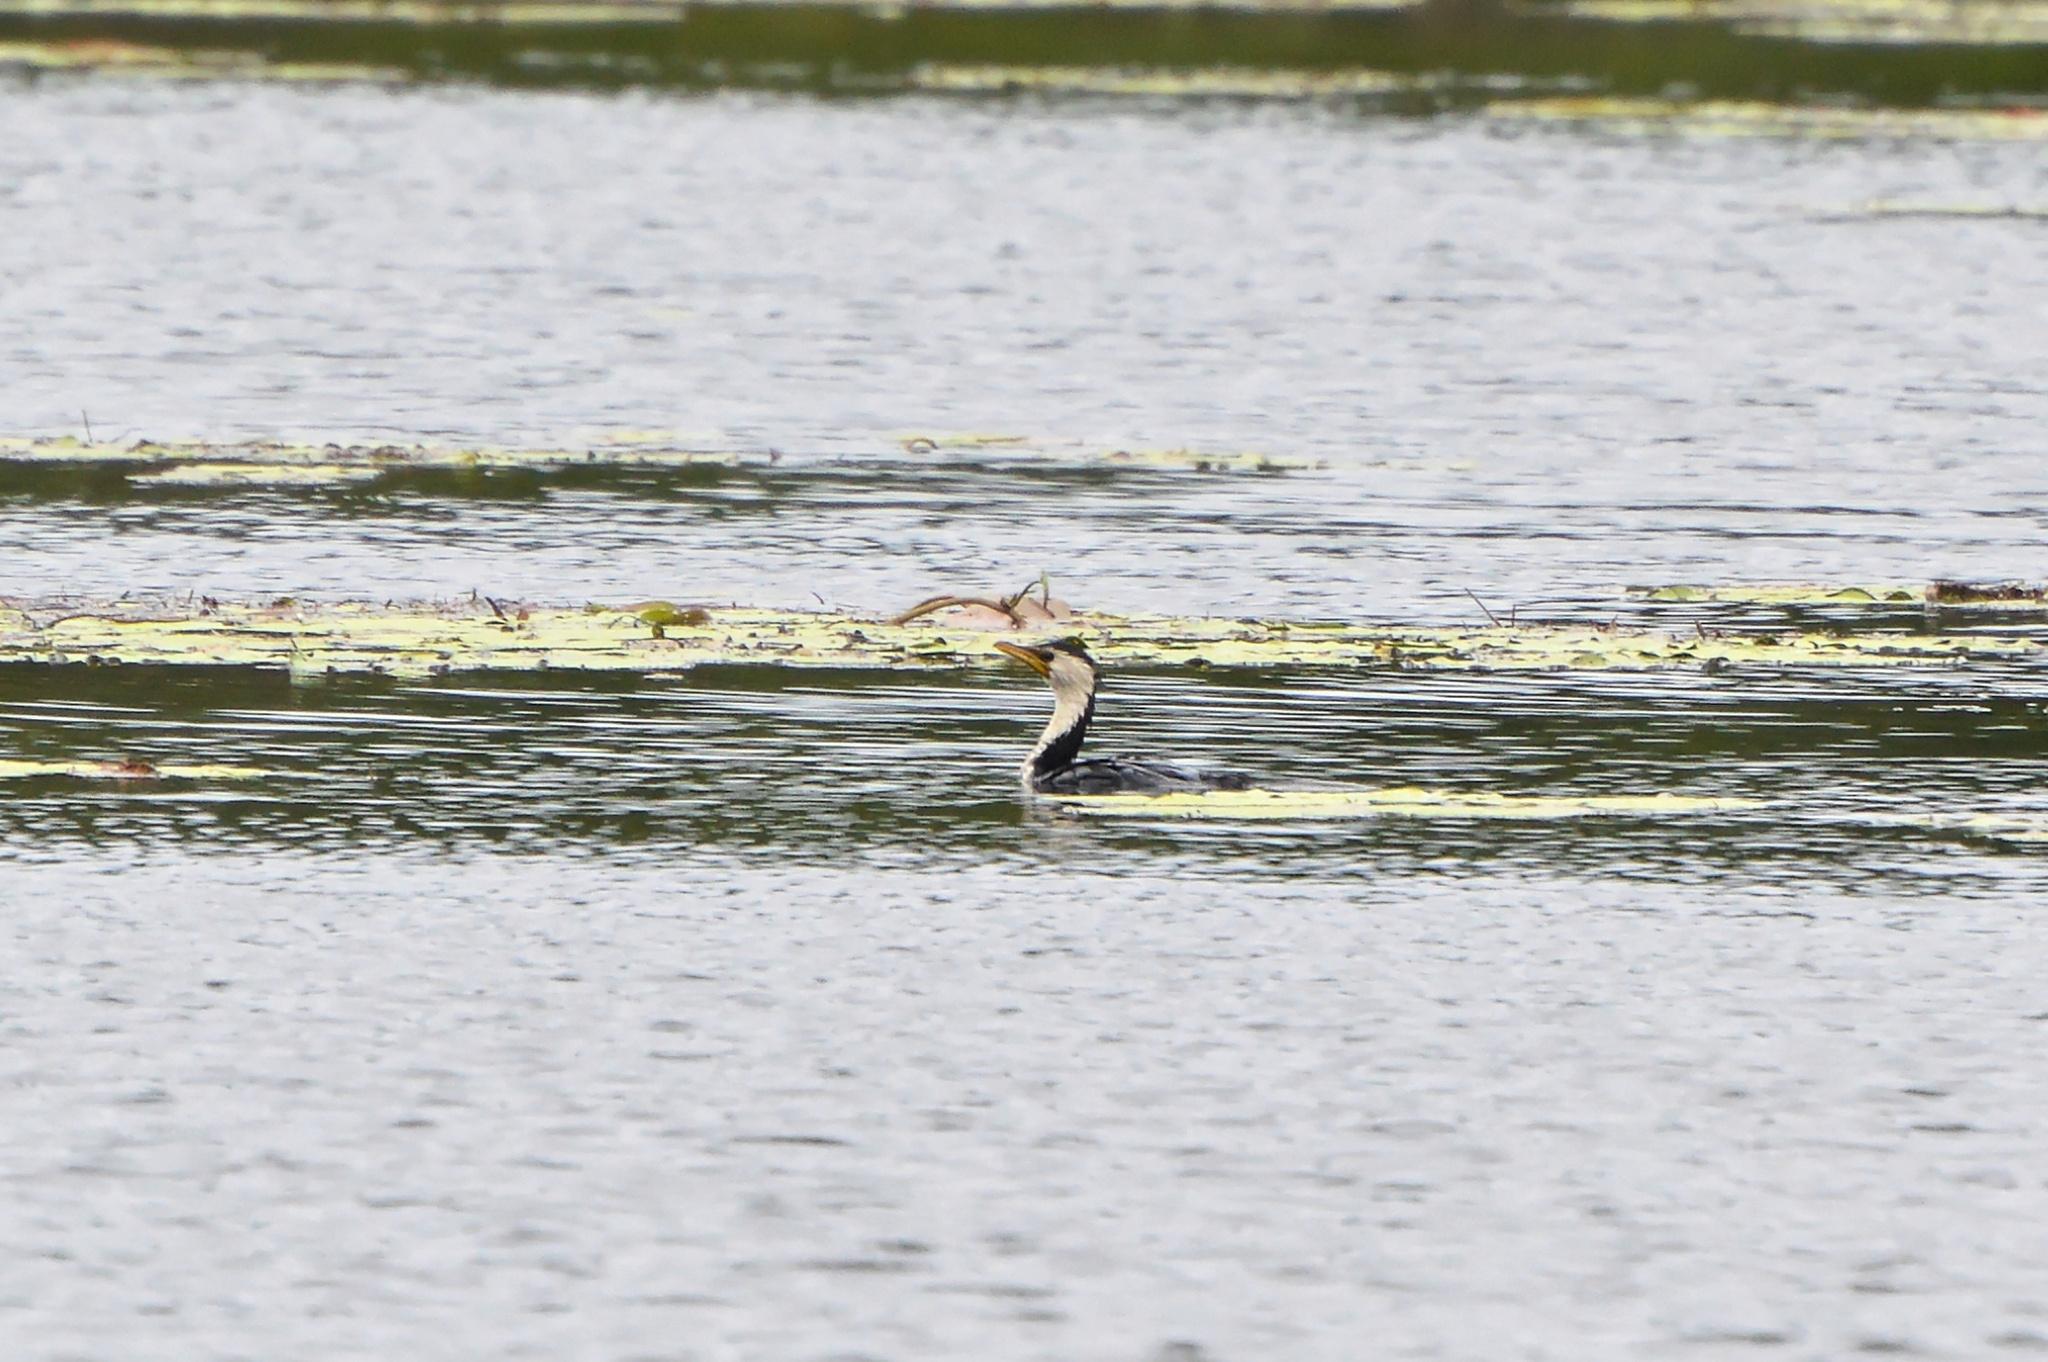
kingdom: Animalia
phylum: Chordata
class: Aves
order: Suliformes
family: Phalacrocoracidae
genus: Microcarbo
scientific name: Microcarbo melanoleucos
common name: Little pied cormorant
